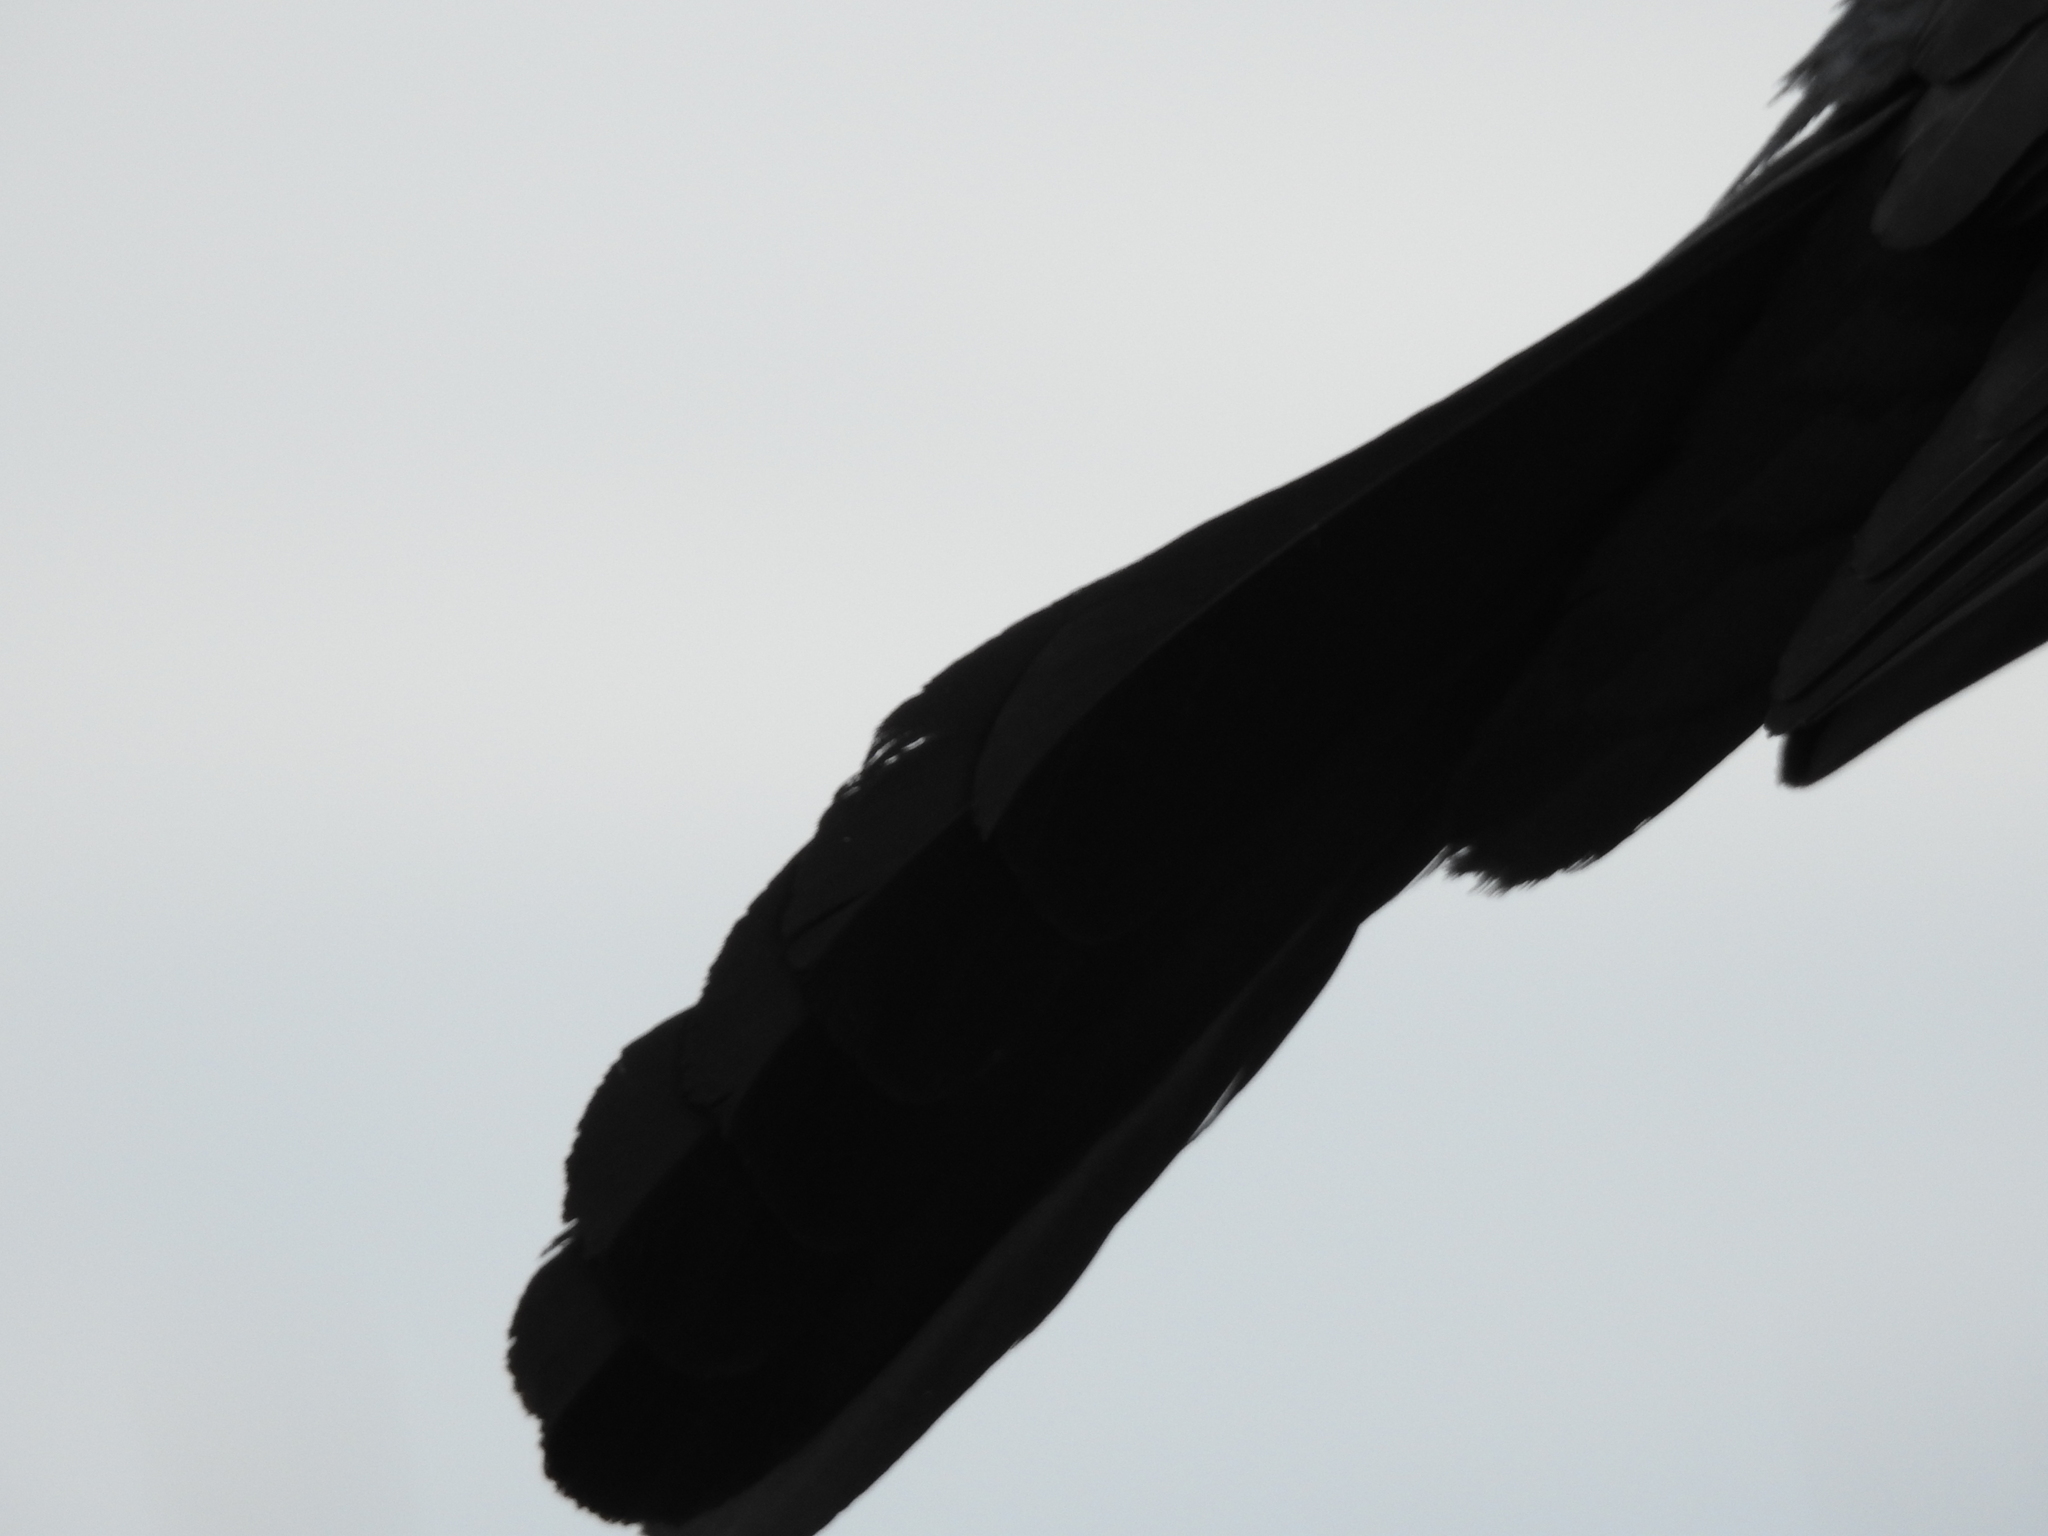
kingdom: Animalia
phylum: Chordata
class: Aves
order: Passeriformes
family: Icteridae
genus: Quiscalus
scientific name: Quiscalus major
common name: Boat-tailed grackle
